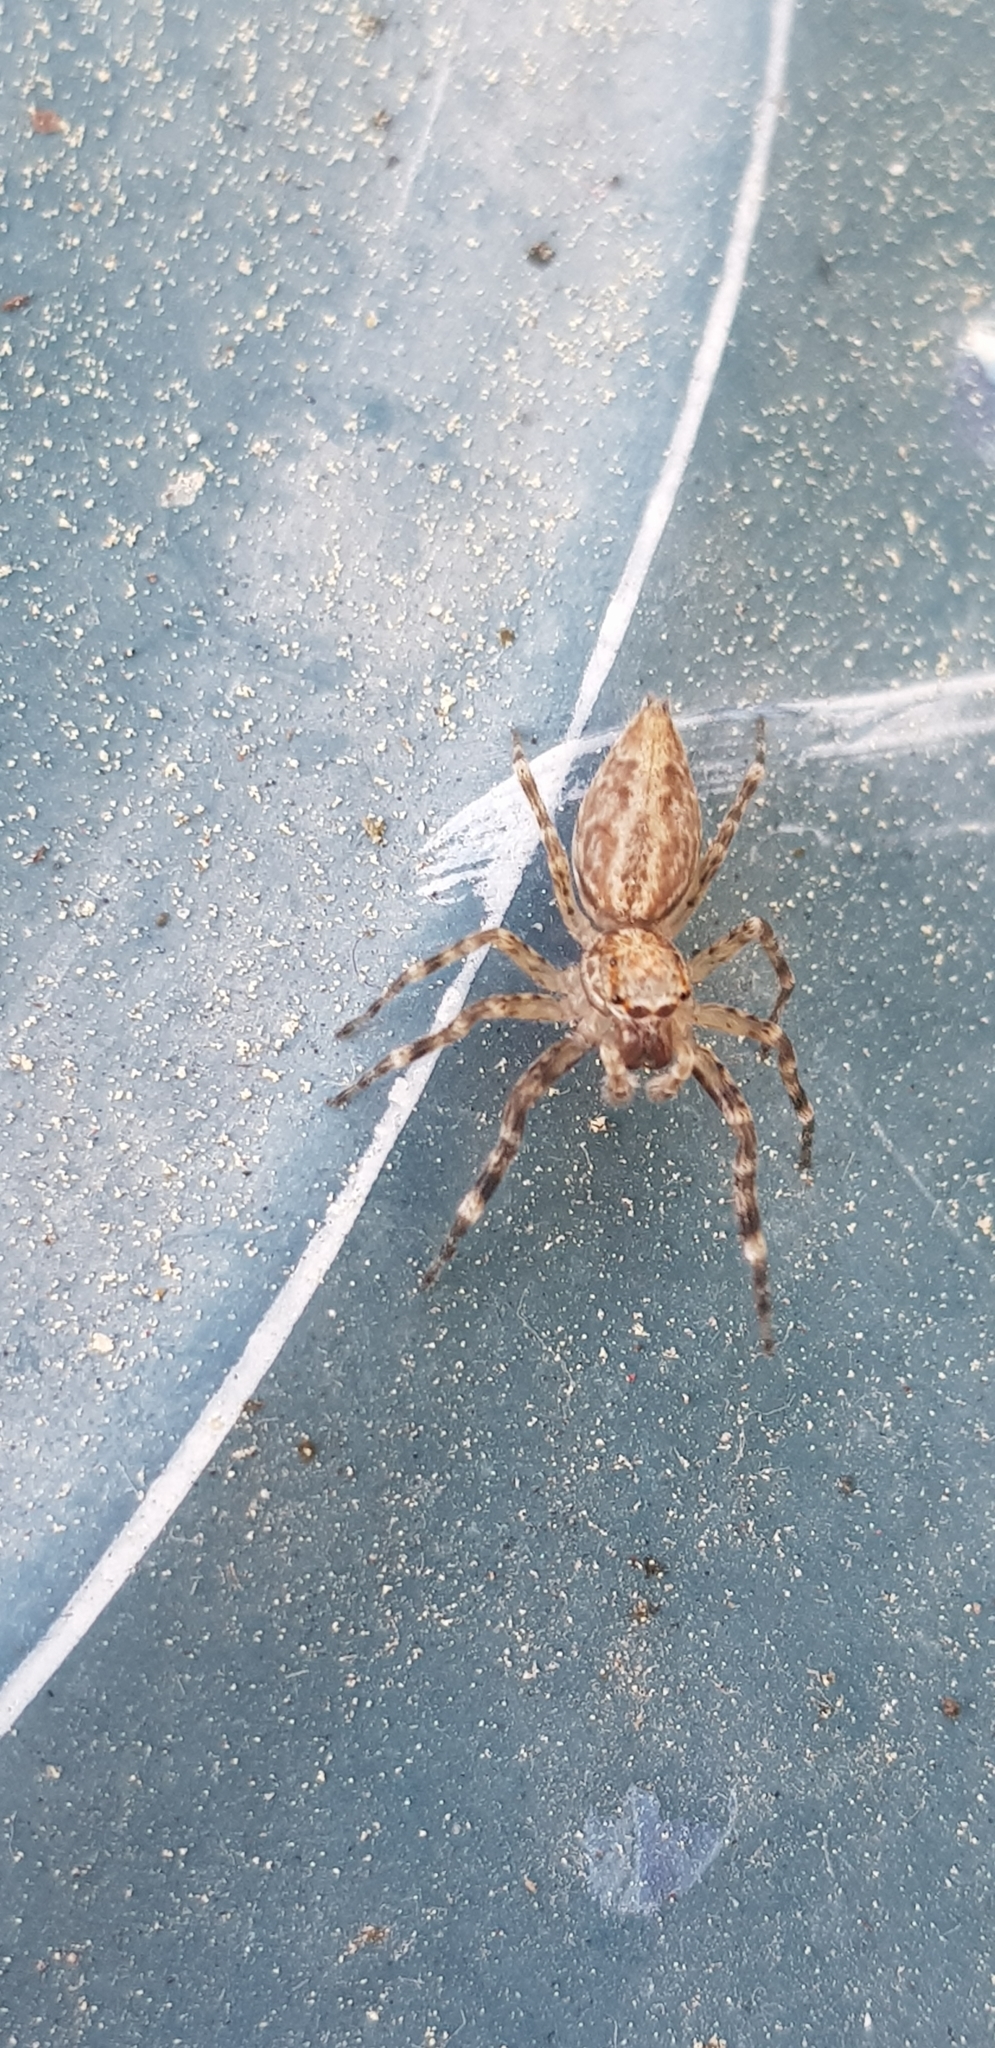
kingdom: Animalia
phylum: Arthropoda
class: Arachnida
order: Araneae
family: Salticidae
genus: Helpis
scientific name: Helpis minitabunda
